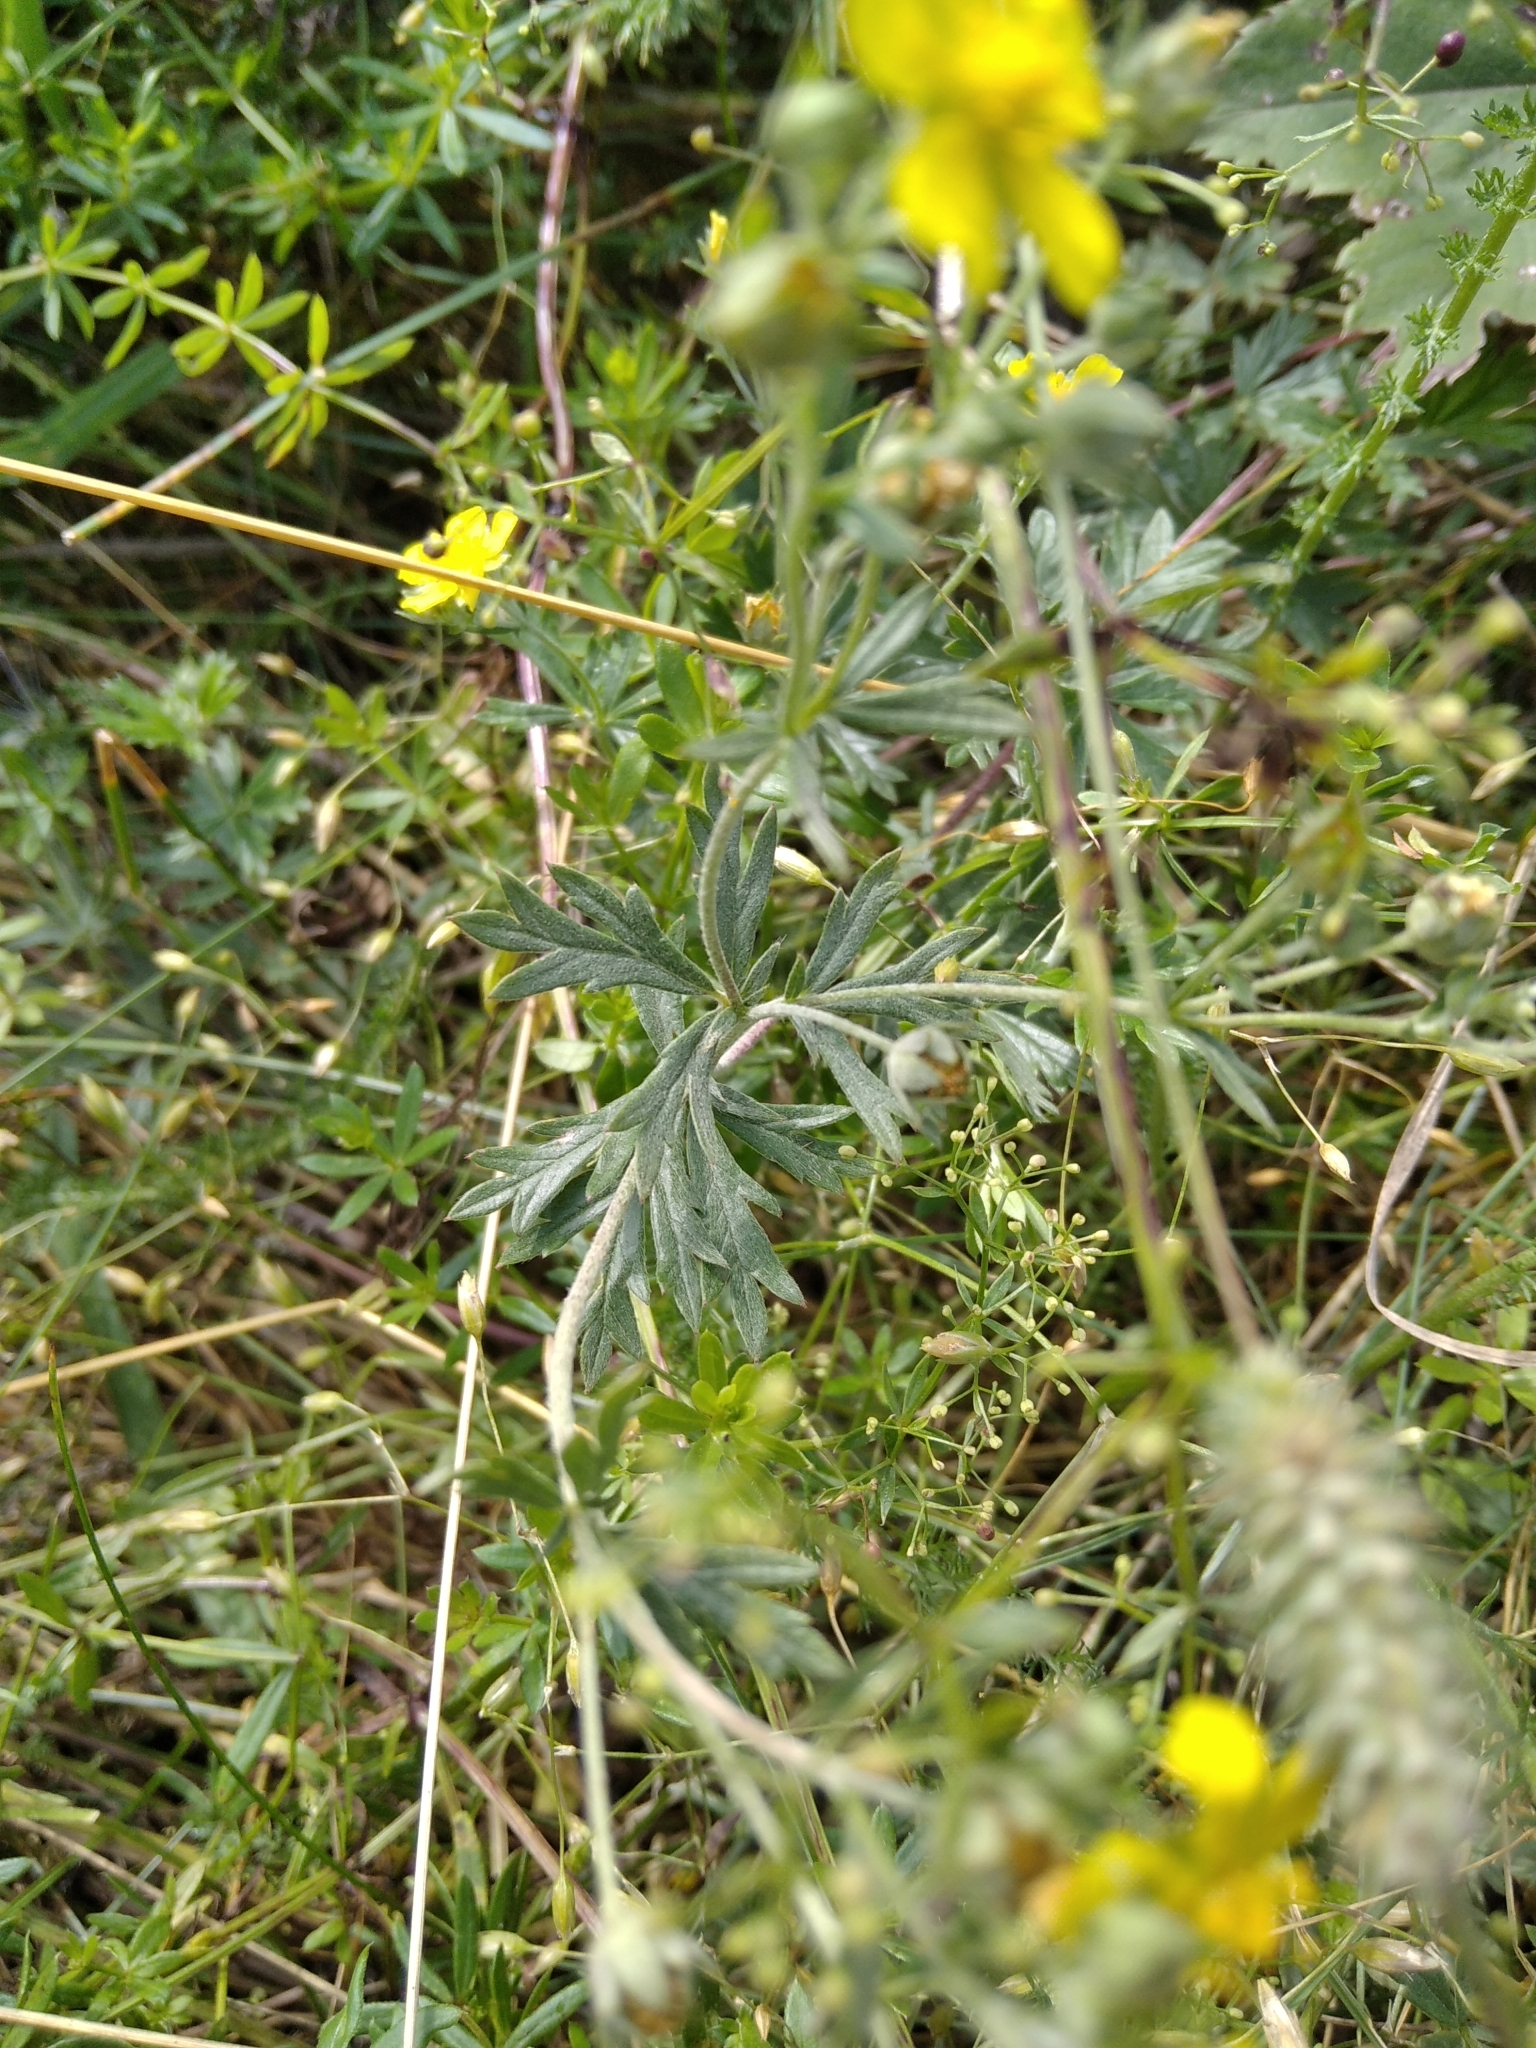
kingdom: Plantae
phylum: Tracheophyta
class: Magnoliopsida
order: Rosales
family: Rosaceae
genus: Potentilla
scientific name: Potentilla argentea
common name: Hoary cinquefoil
